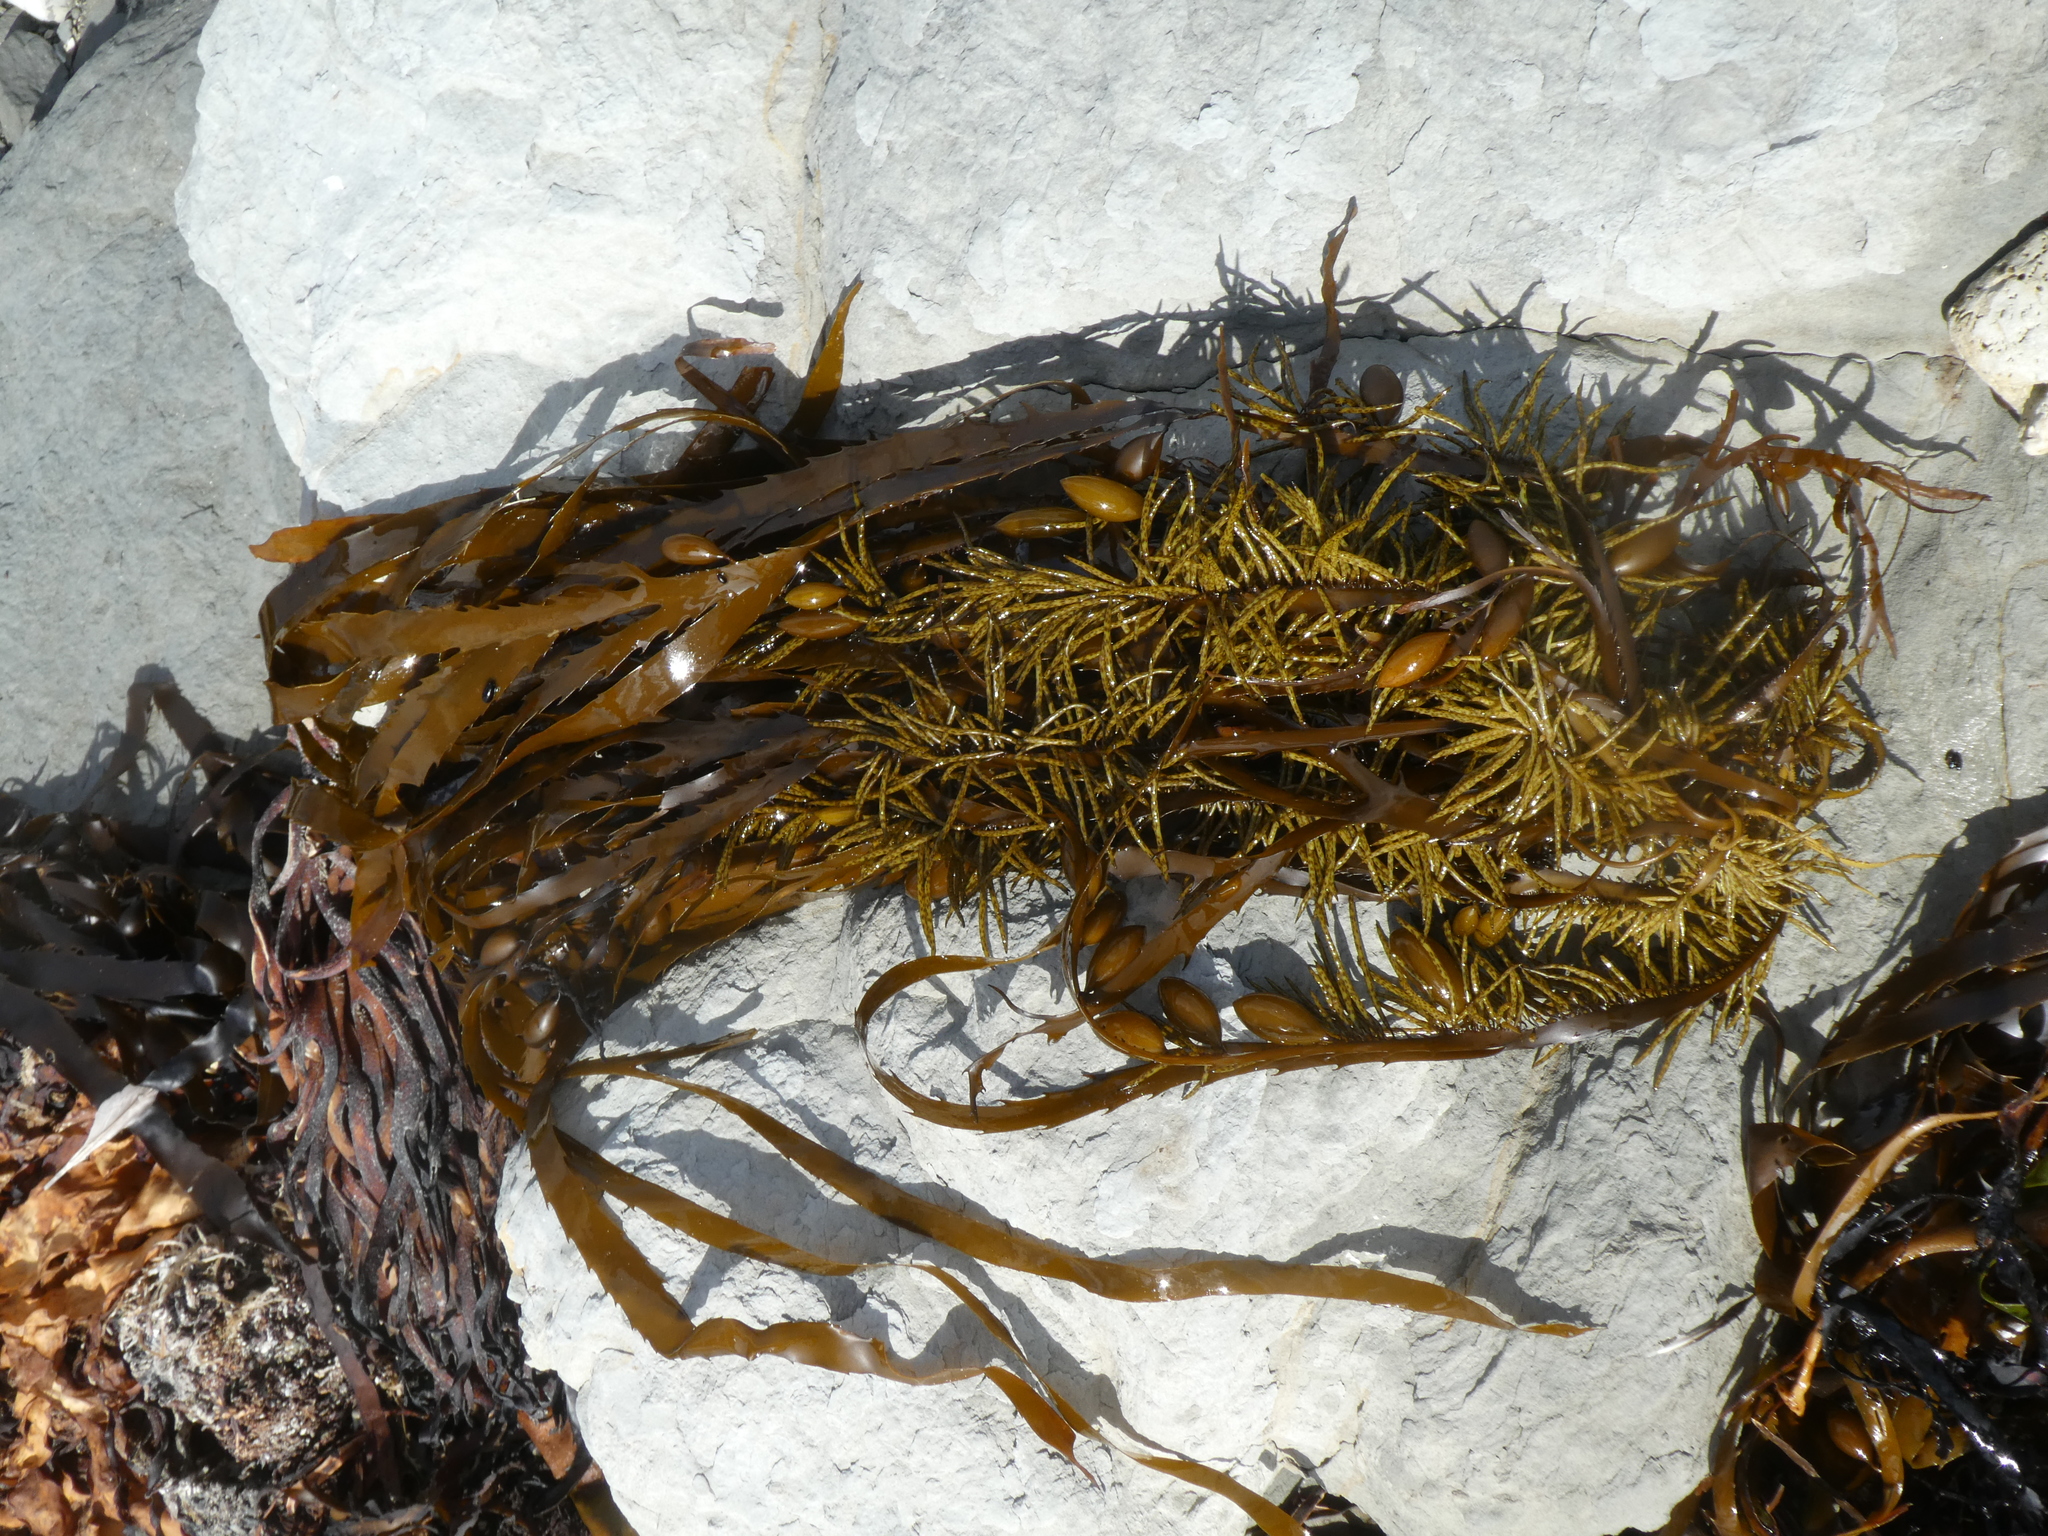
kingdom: Chromista
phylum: Ochrophyta
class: Phaeophyceae
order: Fucales
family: Seirococcaceae
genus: Marginariella
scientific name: Marginariella boryana
